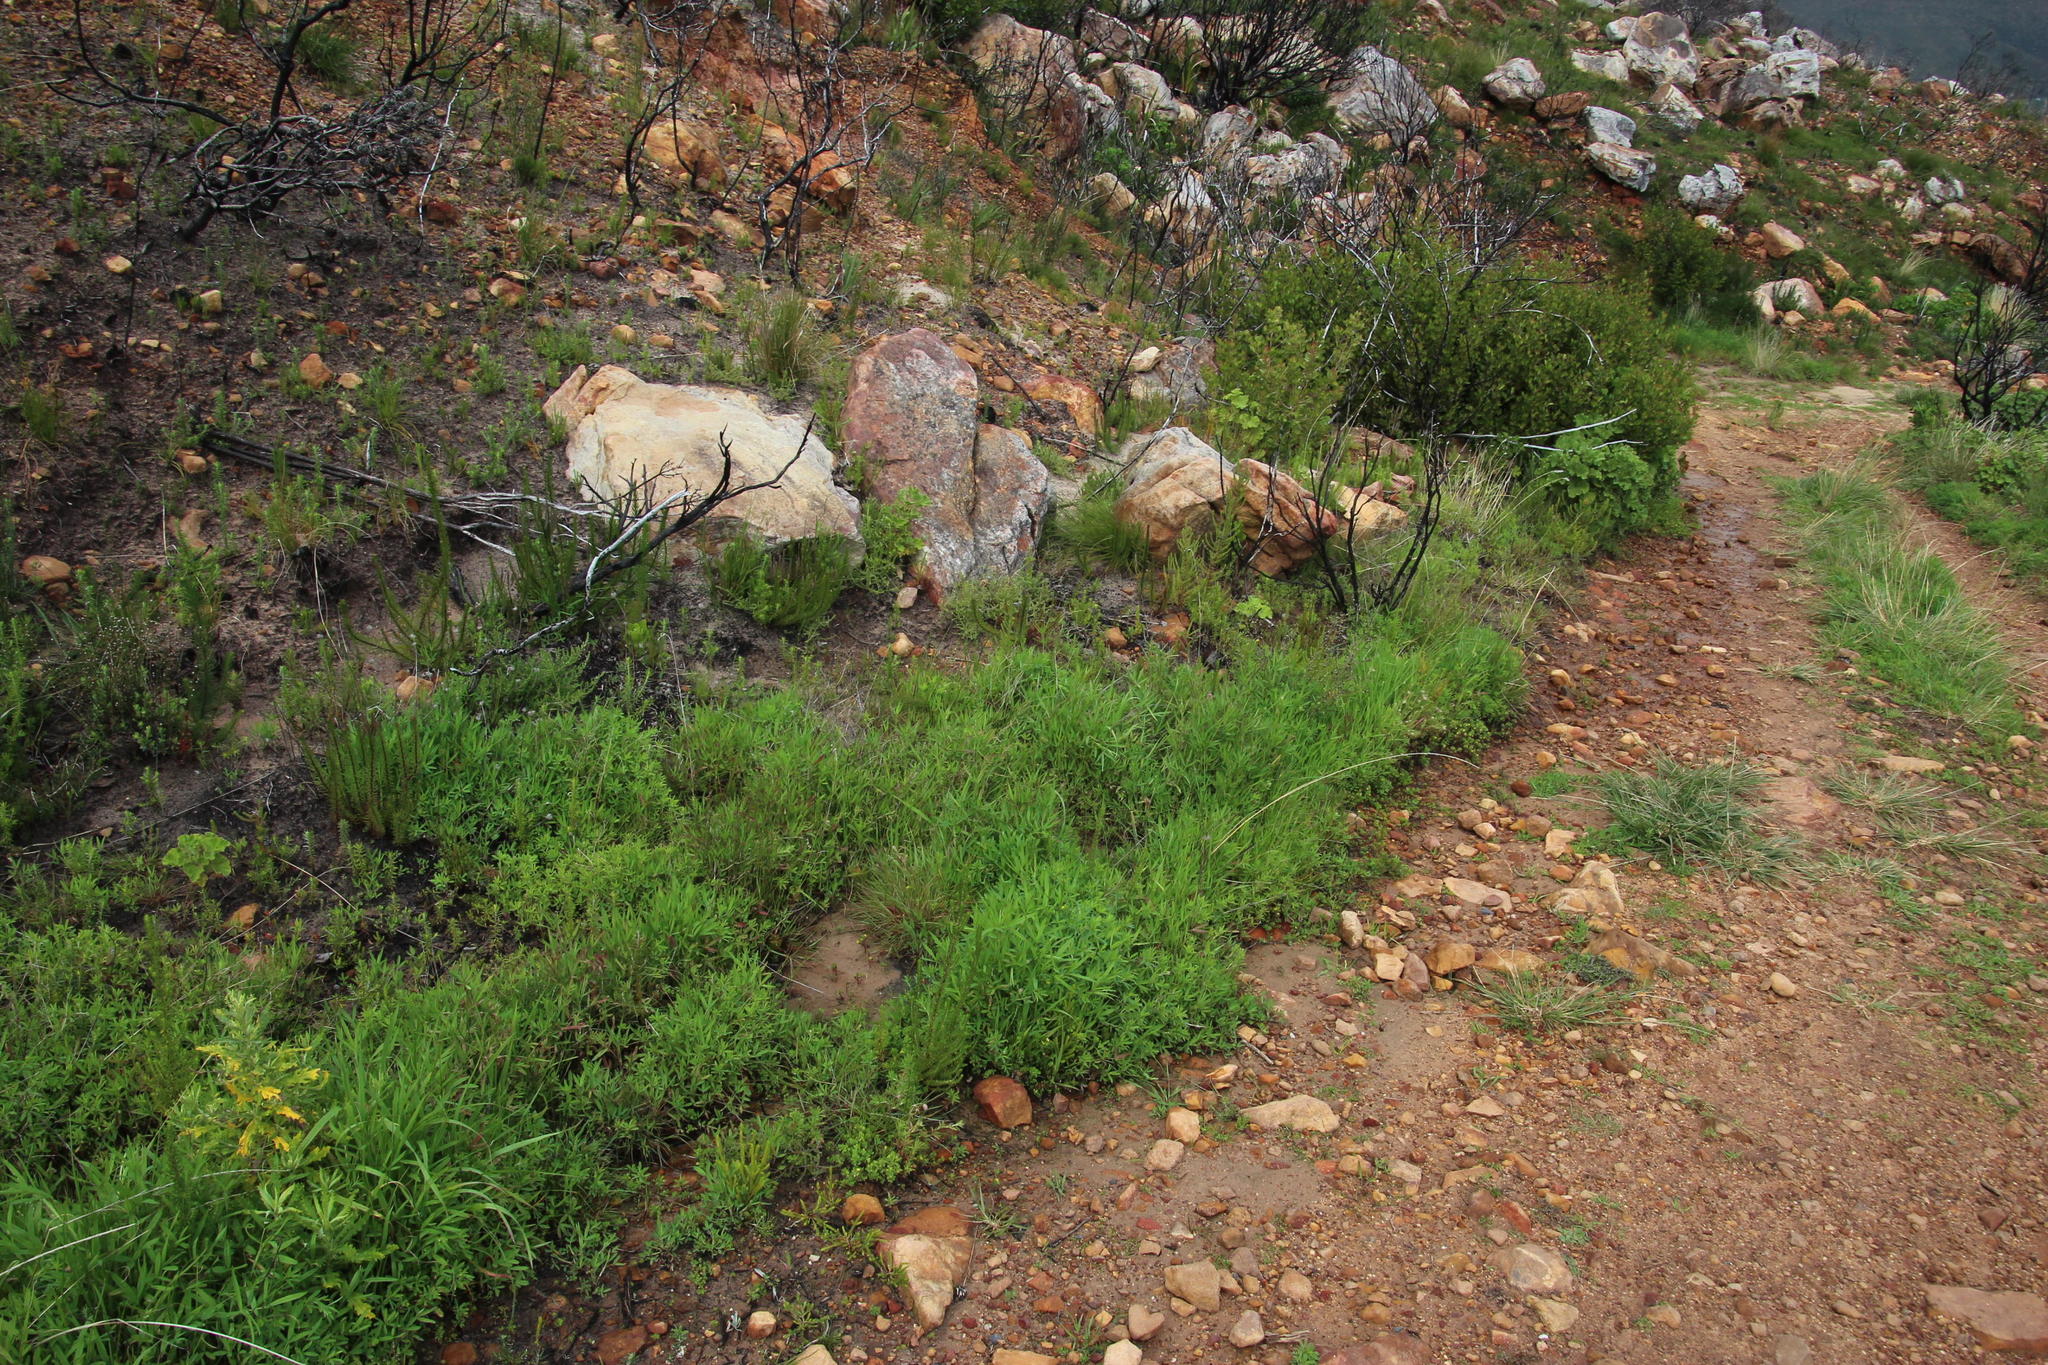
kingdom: Plantae
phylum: Tracheophyta
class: Magnoliopsida
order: Fabales
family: Fabaceae
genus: Trifolium
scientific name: Trifolium dubium
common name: Suckling clover
